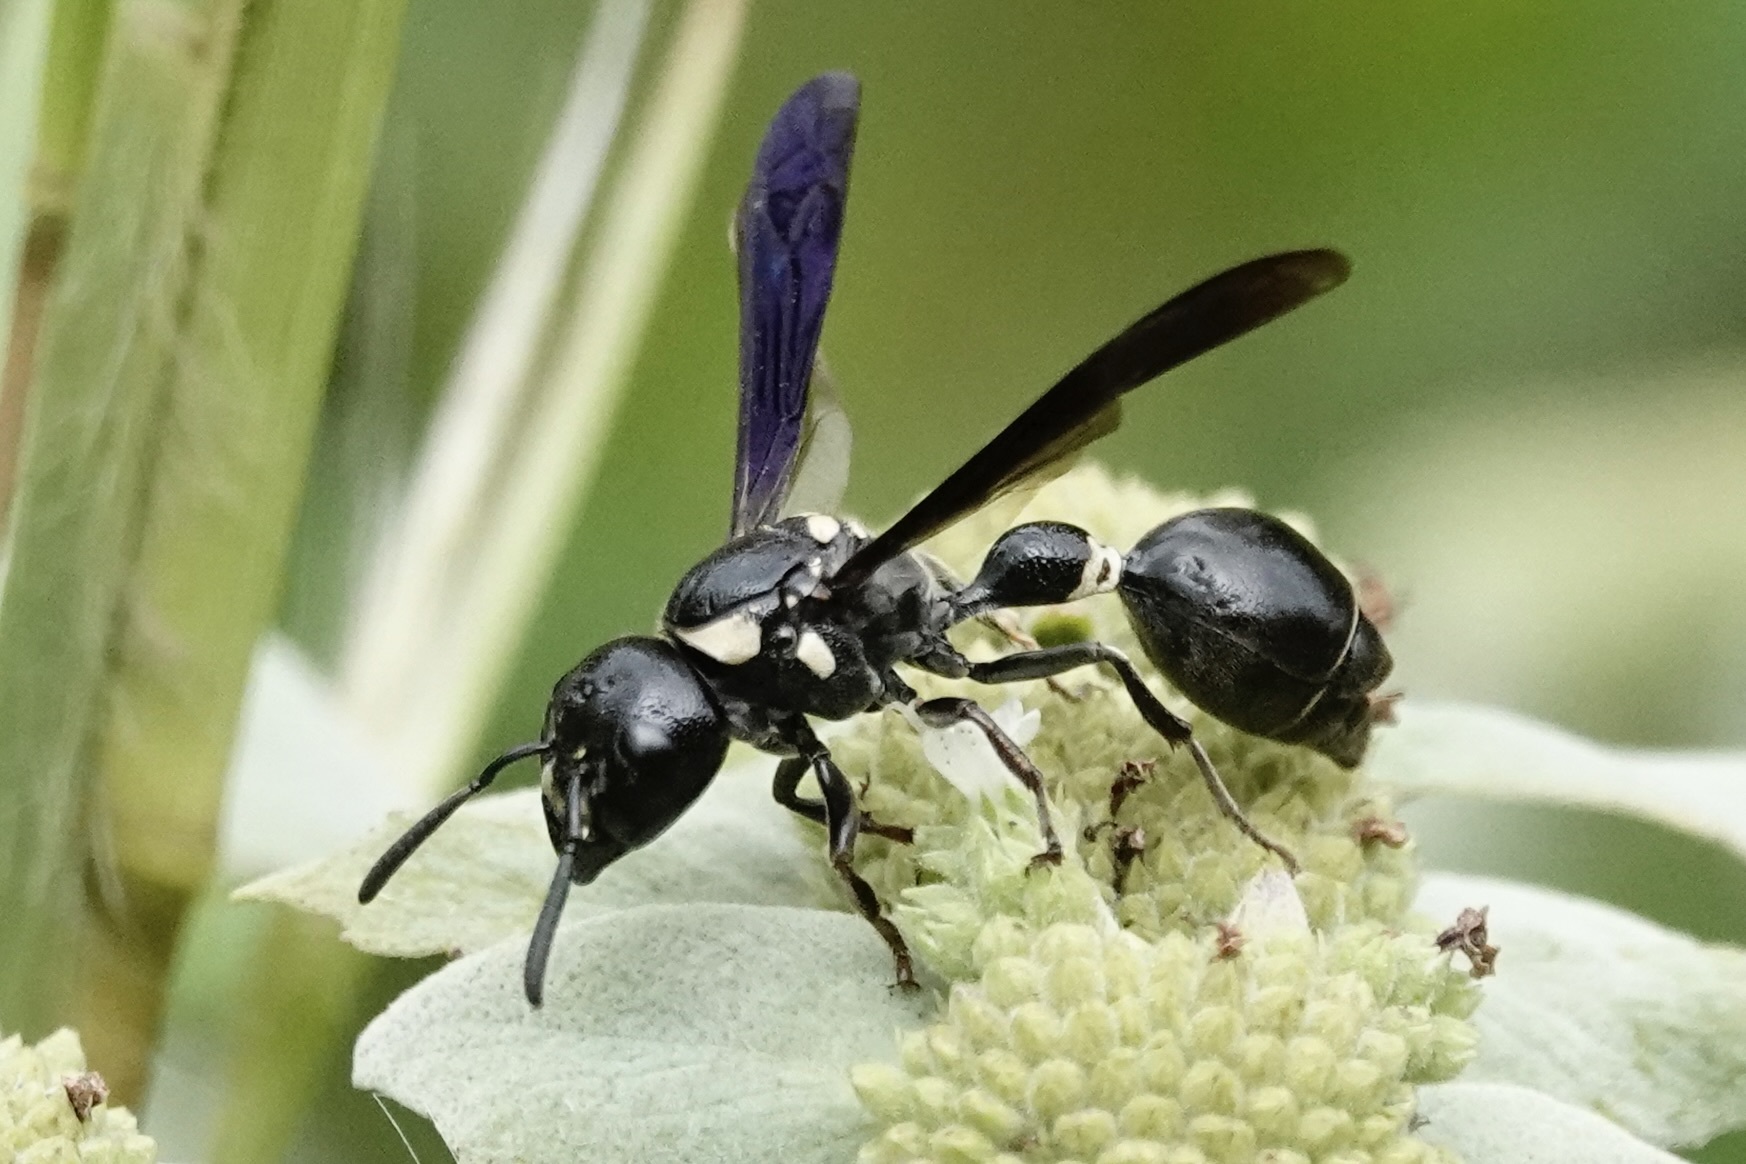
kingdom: Animalia
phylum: Arthropoda
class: Insecta
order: Hymenoptera
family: Eumenidae
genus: Zethus
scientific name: Zethus spinipes
